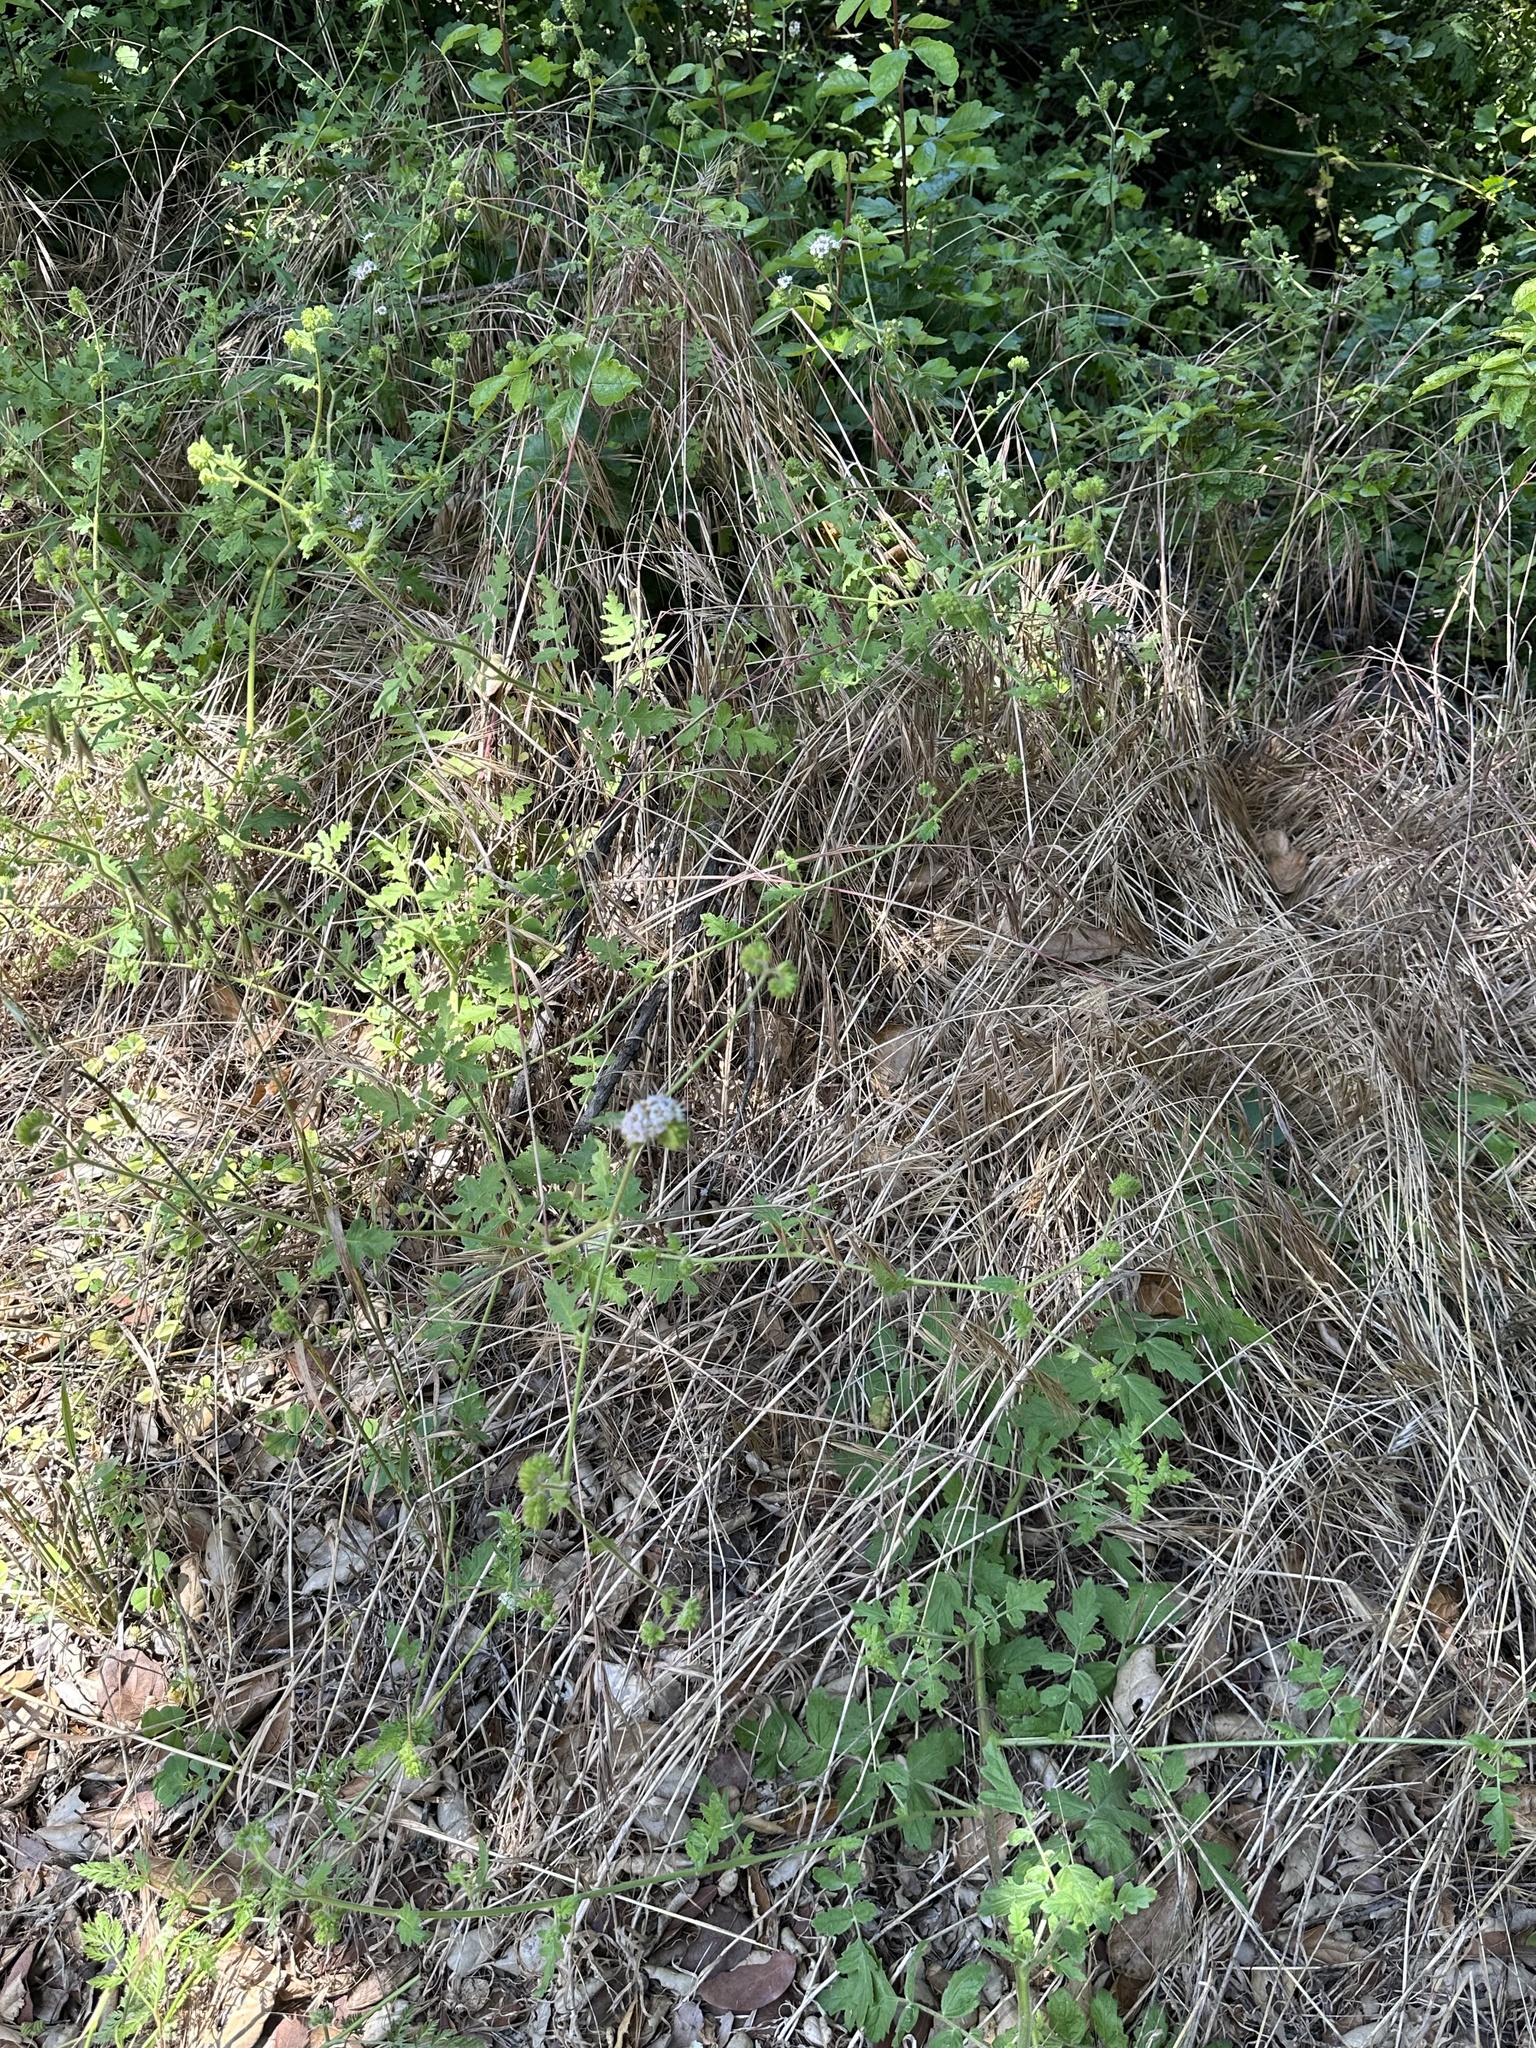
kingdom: Plantae
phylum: Tracheophyta
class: Magnoliopsida
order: Boraginales
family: Hydrophyllaceae
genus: Phacelia
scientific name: Phacelia ramosissima
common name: Branching phacelia
